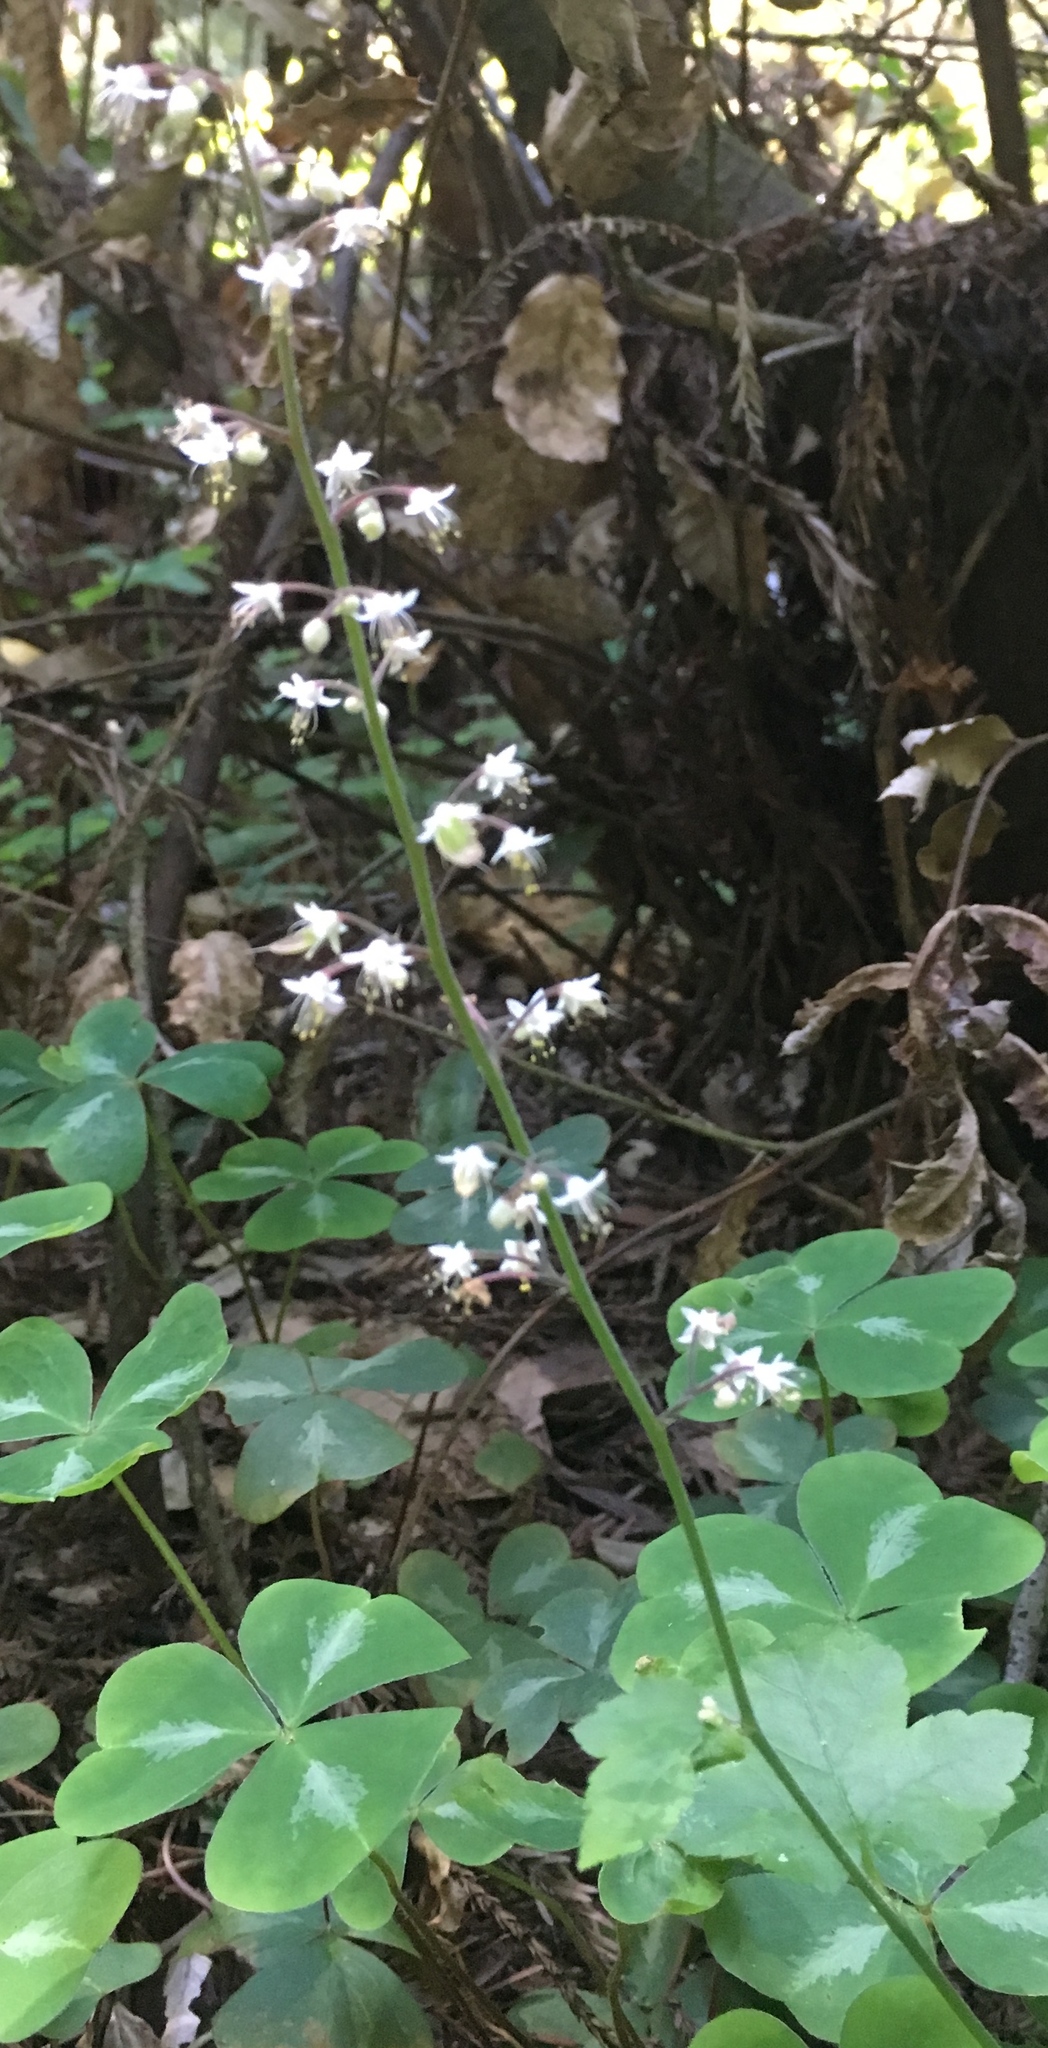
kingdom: Plantae
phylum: Tracheophyta
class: Magnoliopsida
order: Saxifragales
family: Saxifragaceae
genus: Tiarella
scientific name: Tiarella trifoliata
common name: Sugar-scoop
